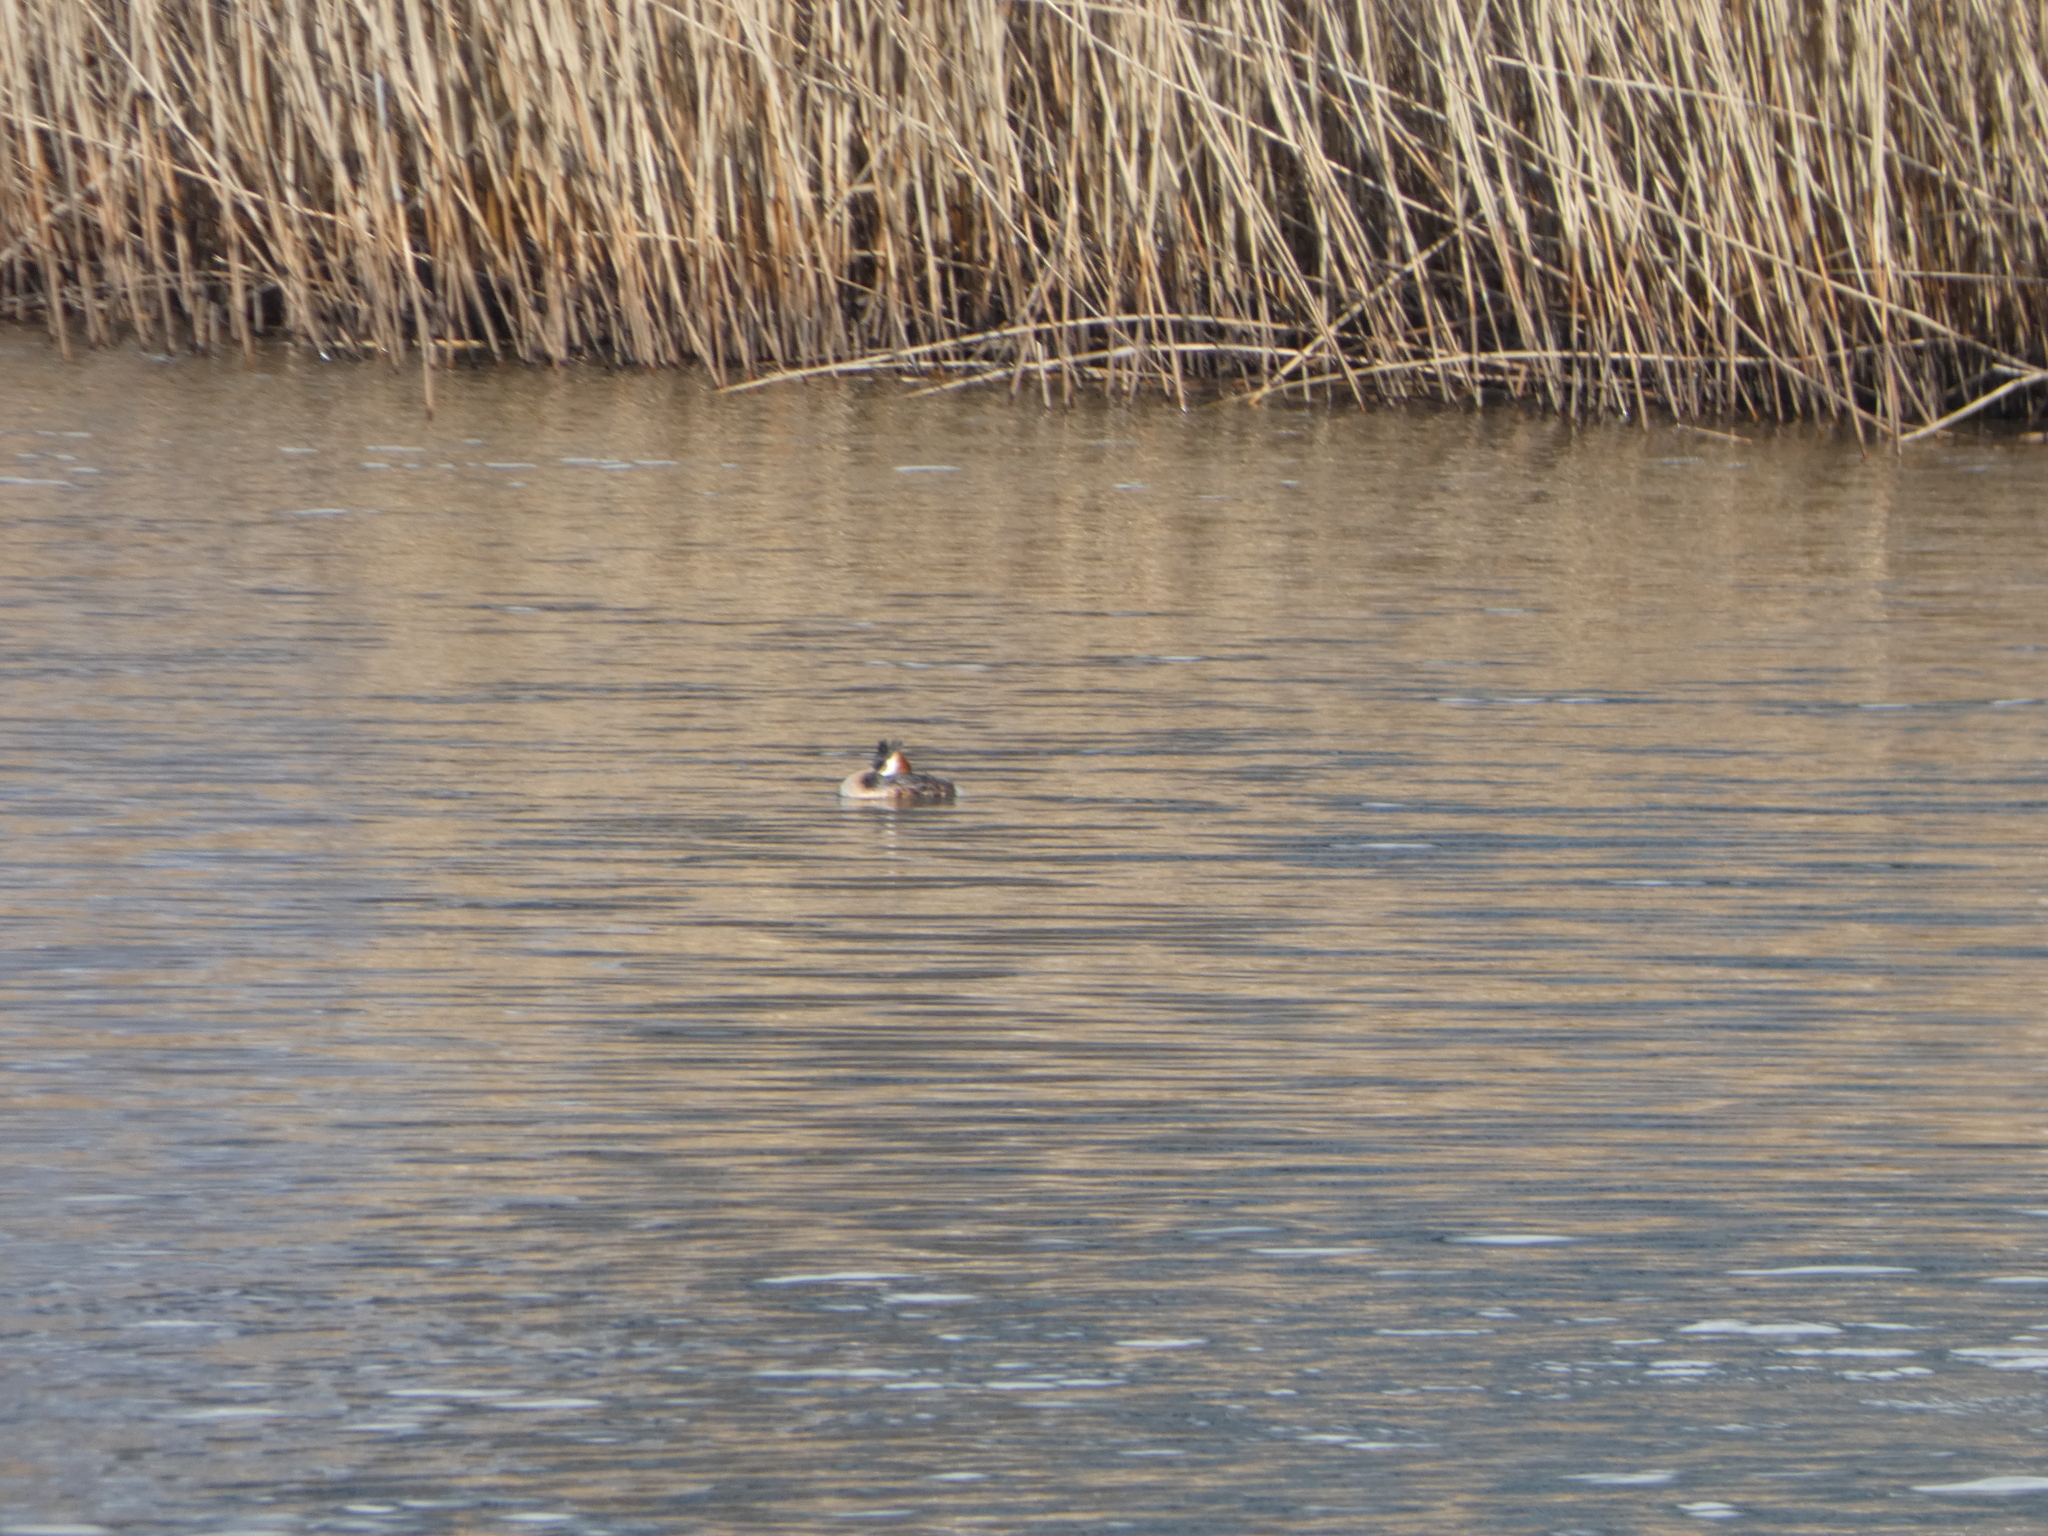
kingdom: Animalia
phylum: Chordata
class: Aves
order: Podicipediformes
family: Podicipedidae
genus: Podiceps
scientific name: Podiceps cristatus
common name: Great crested grebe
